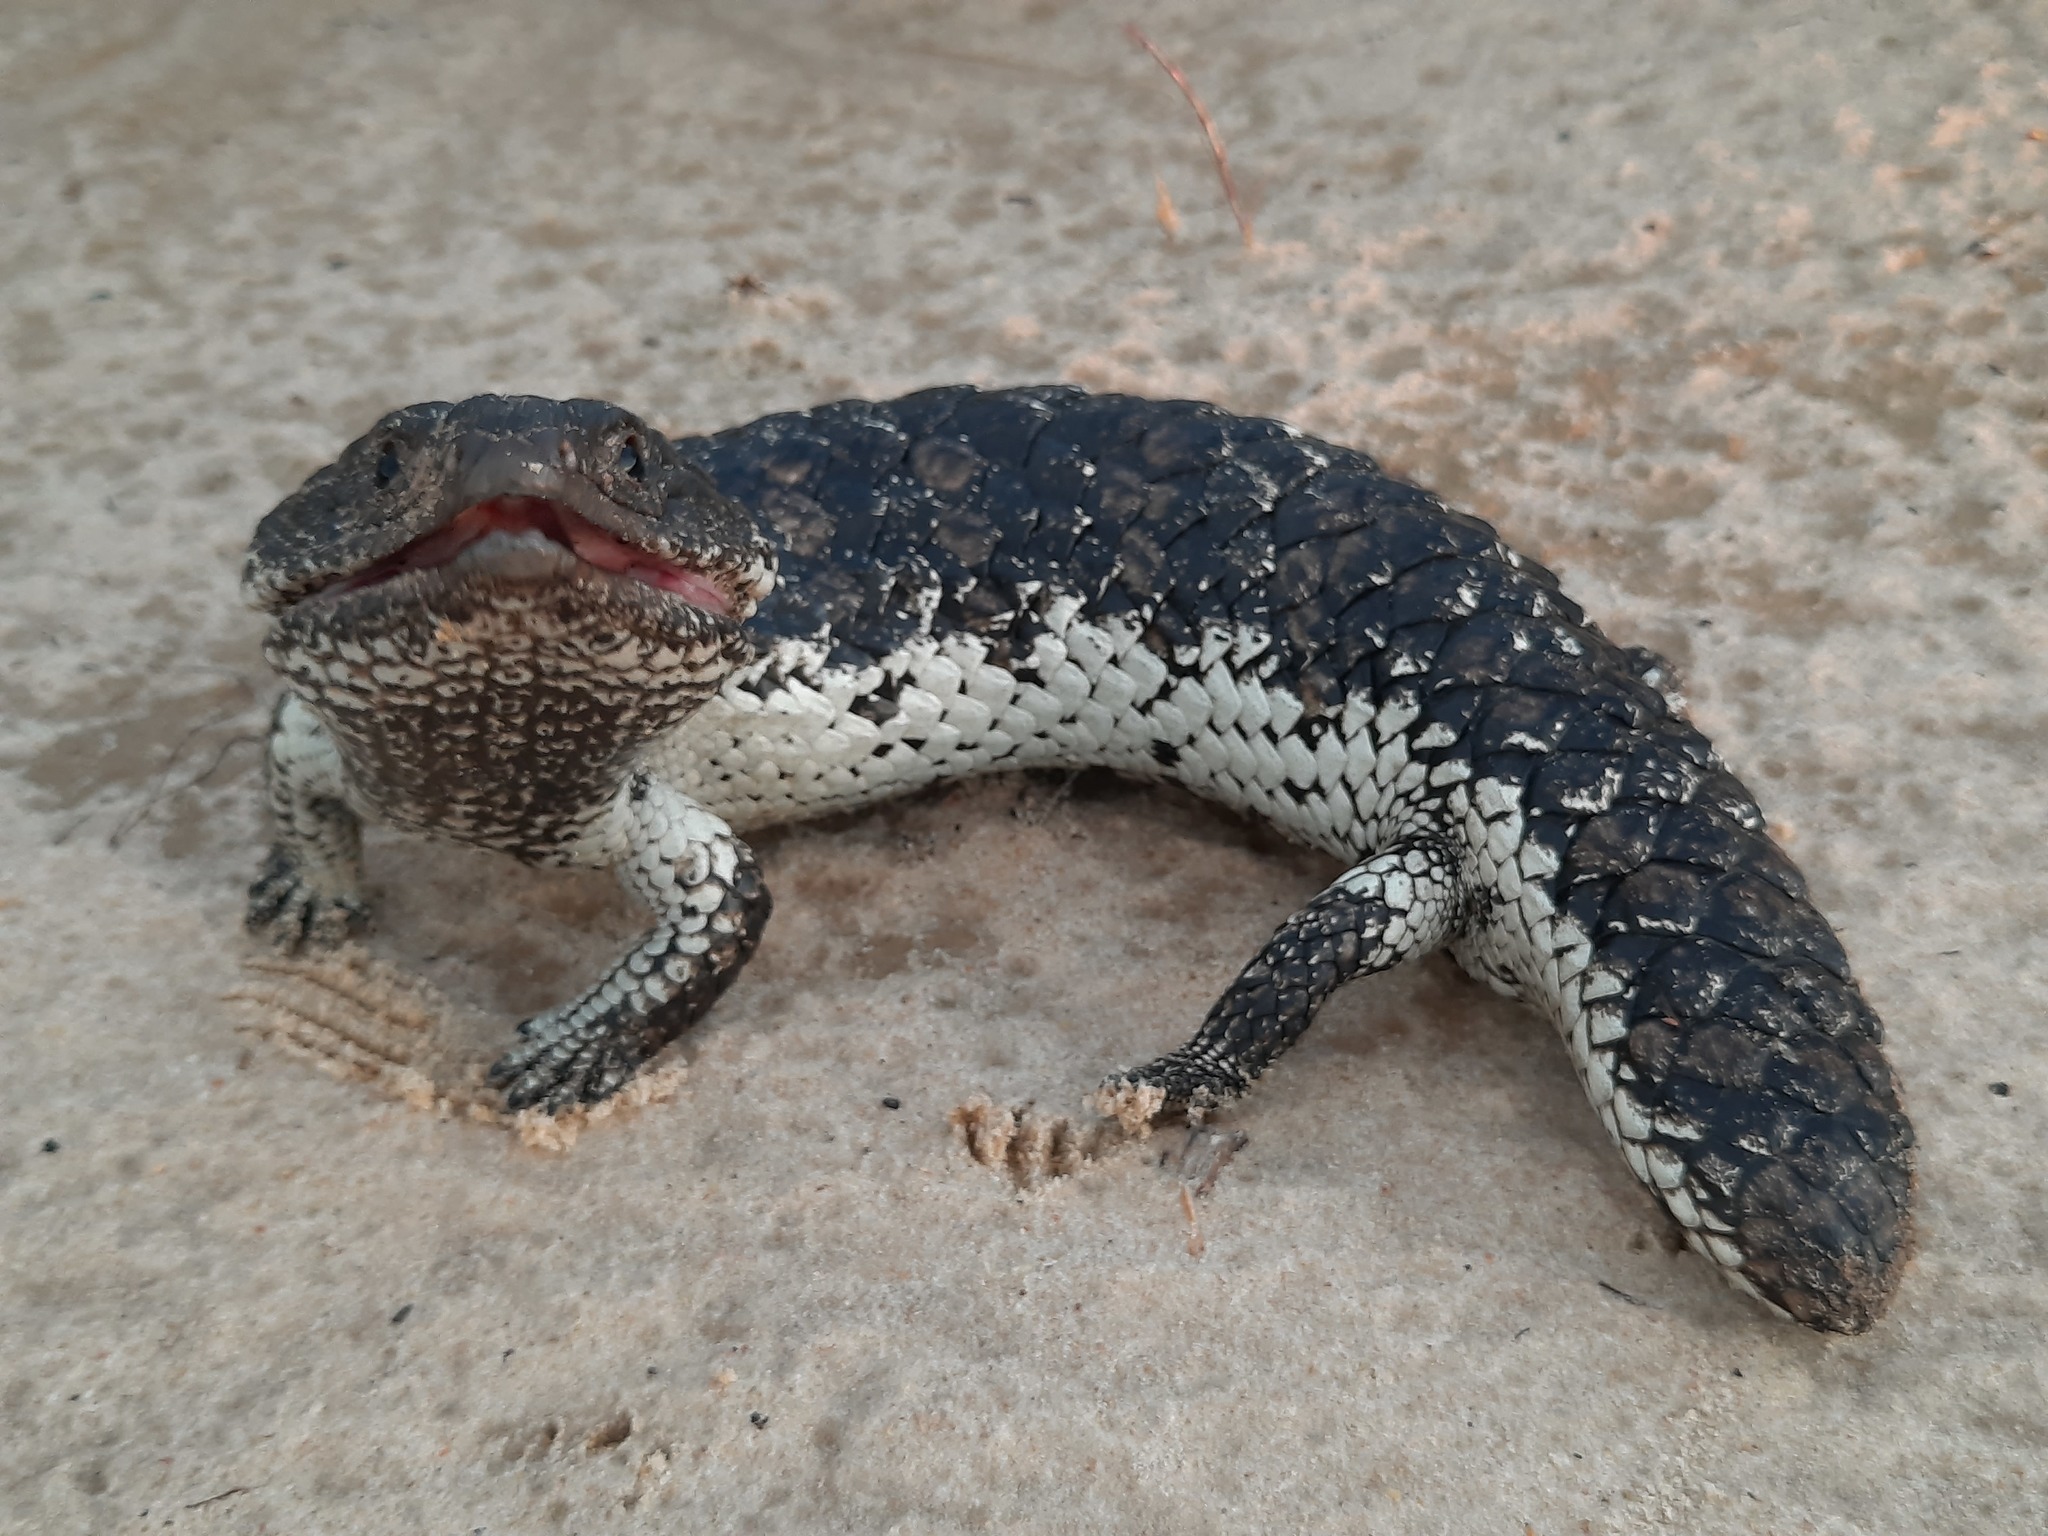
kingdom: Animalia
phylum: Chordata
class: Squamata
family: Scincidae
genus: Tiliqua
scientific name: Tiliqua rugosa
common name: Pinecone lizard
